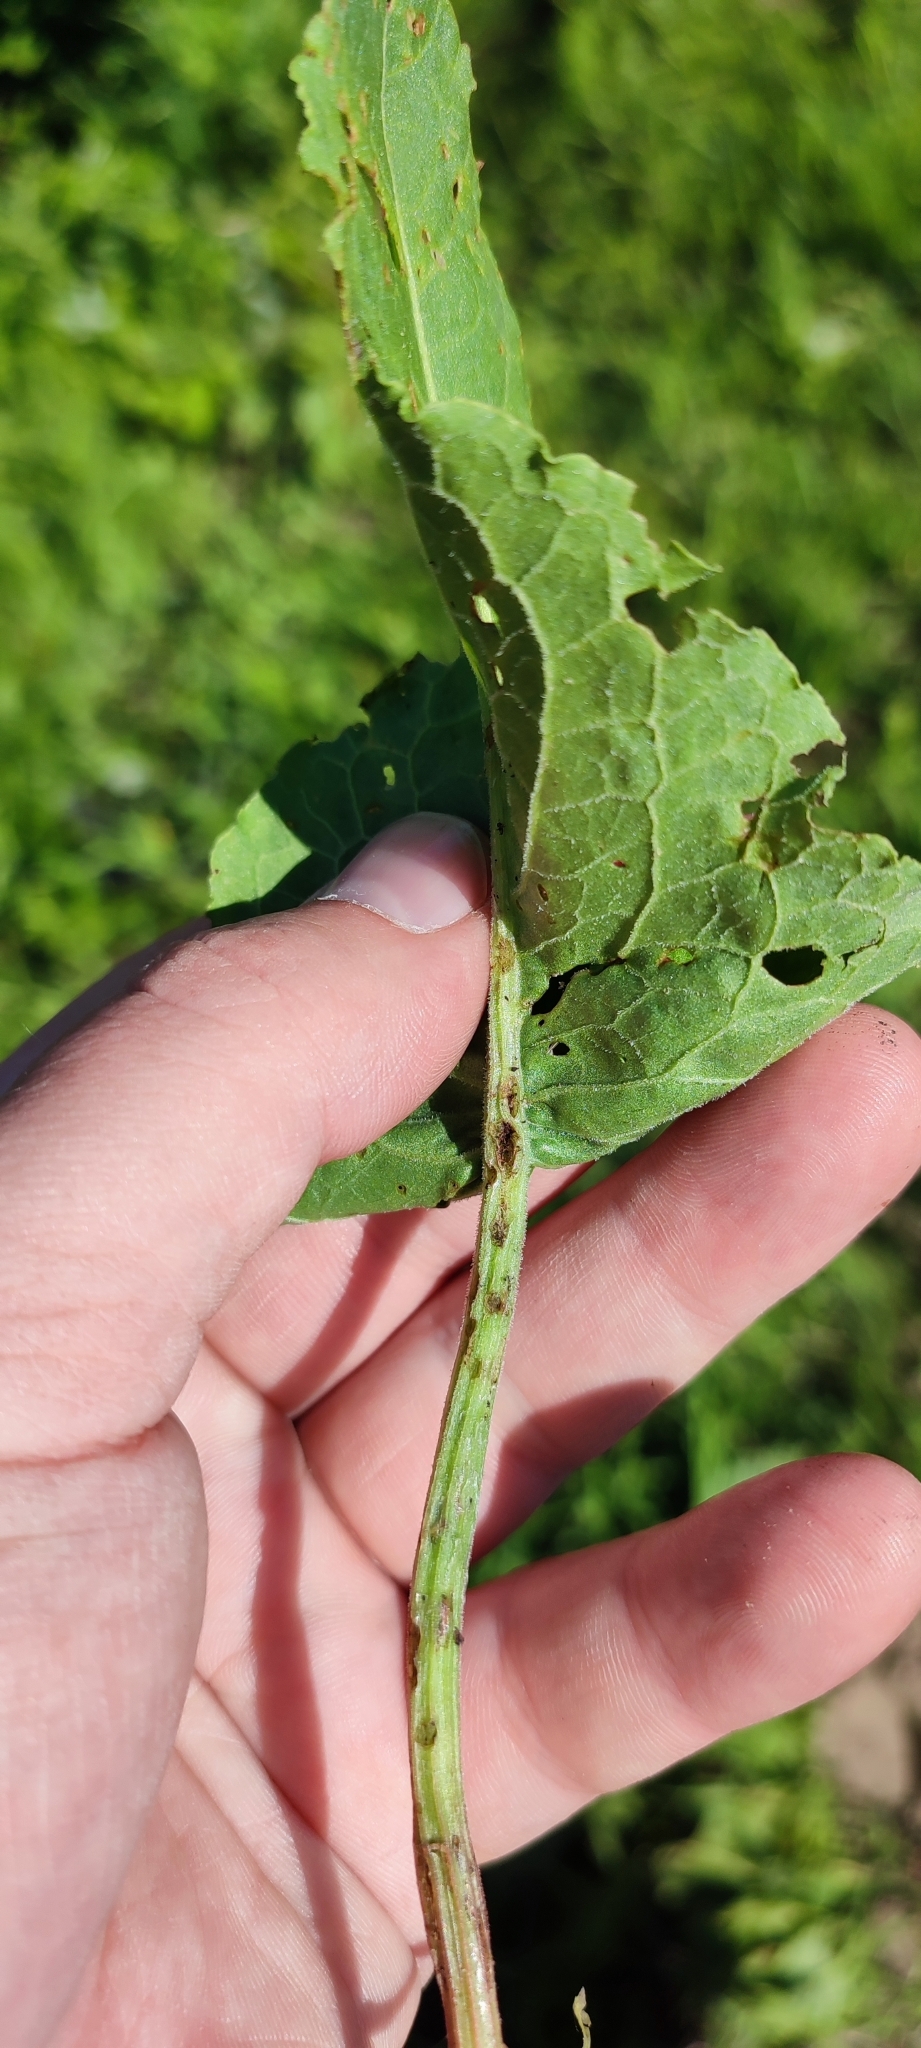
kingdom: Plantae
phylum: Tracheophyta
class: Magnoliopsida
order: Caryophyllales
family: Polygonaceae
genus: Rumex
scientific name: Rumex confertus
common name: Russian dock
